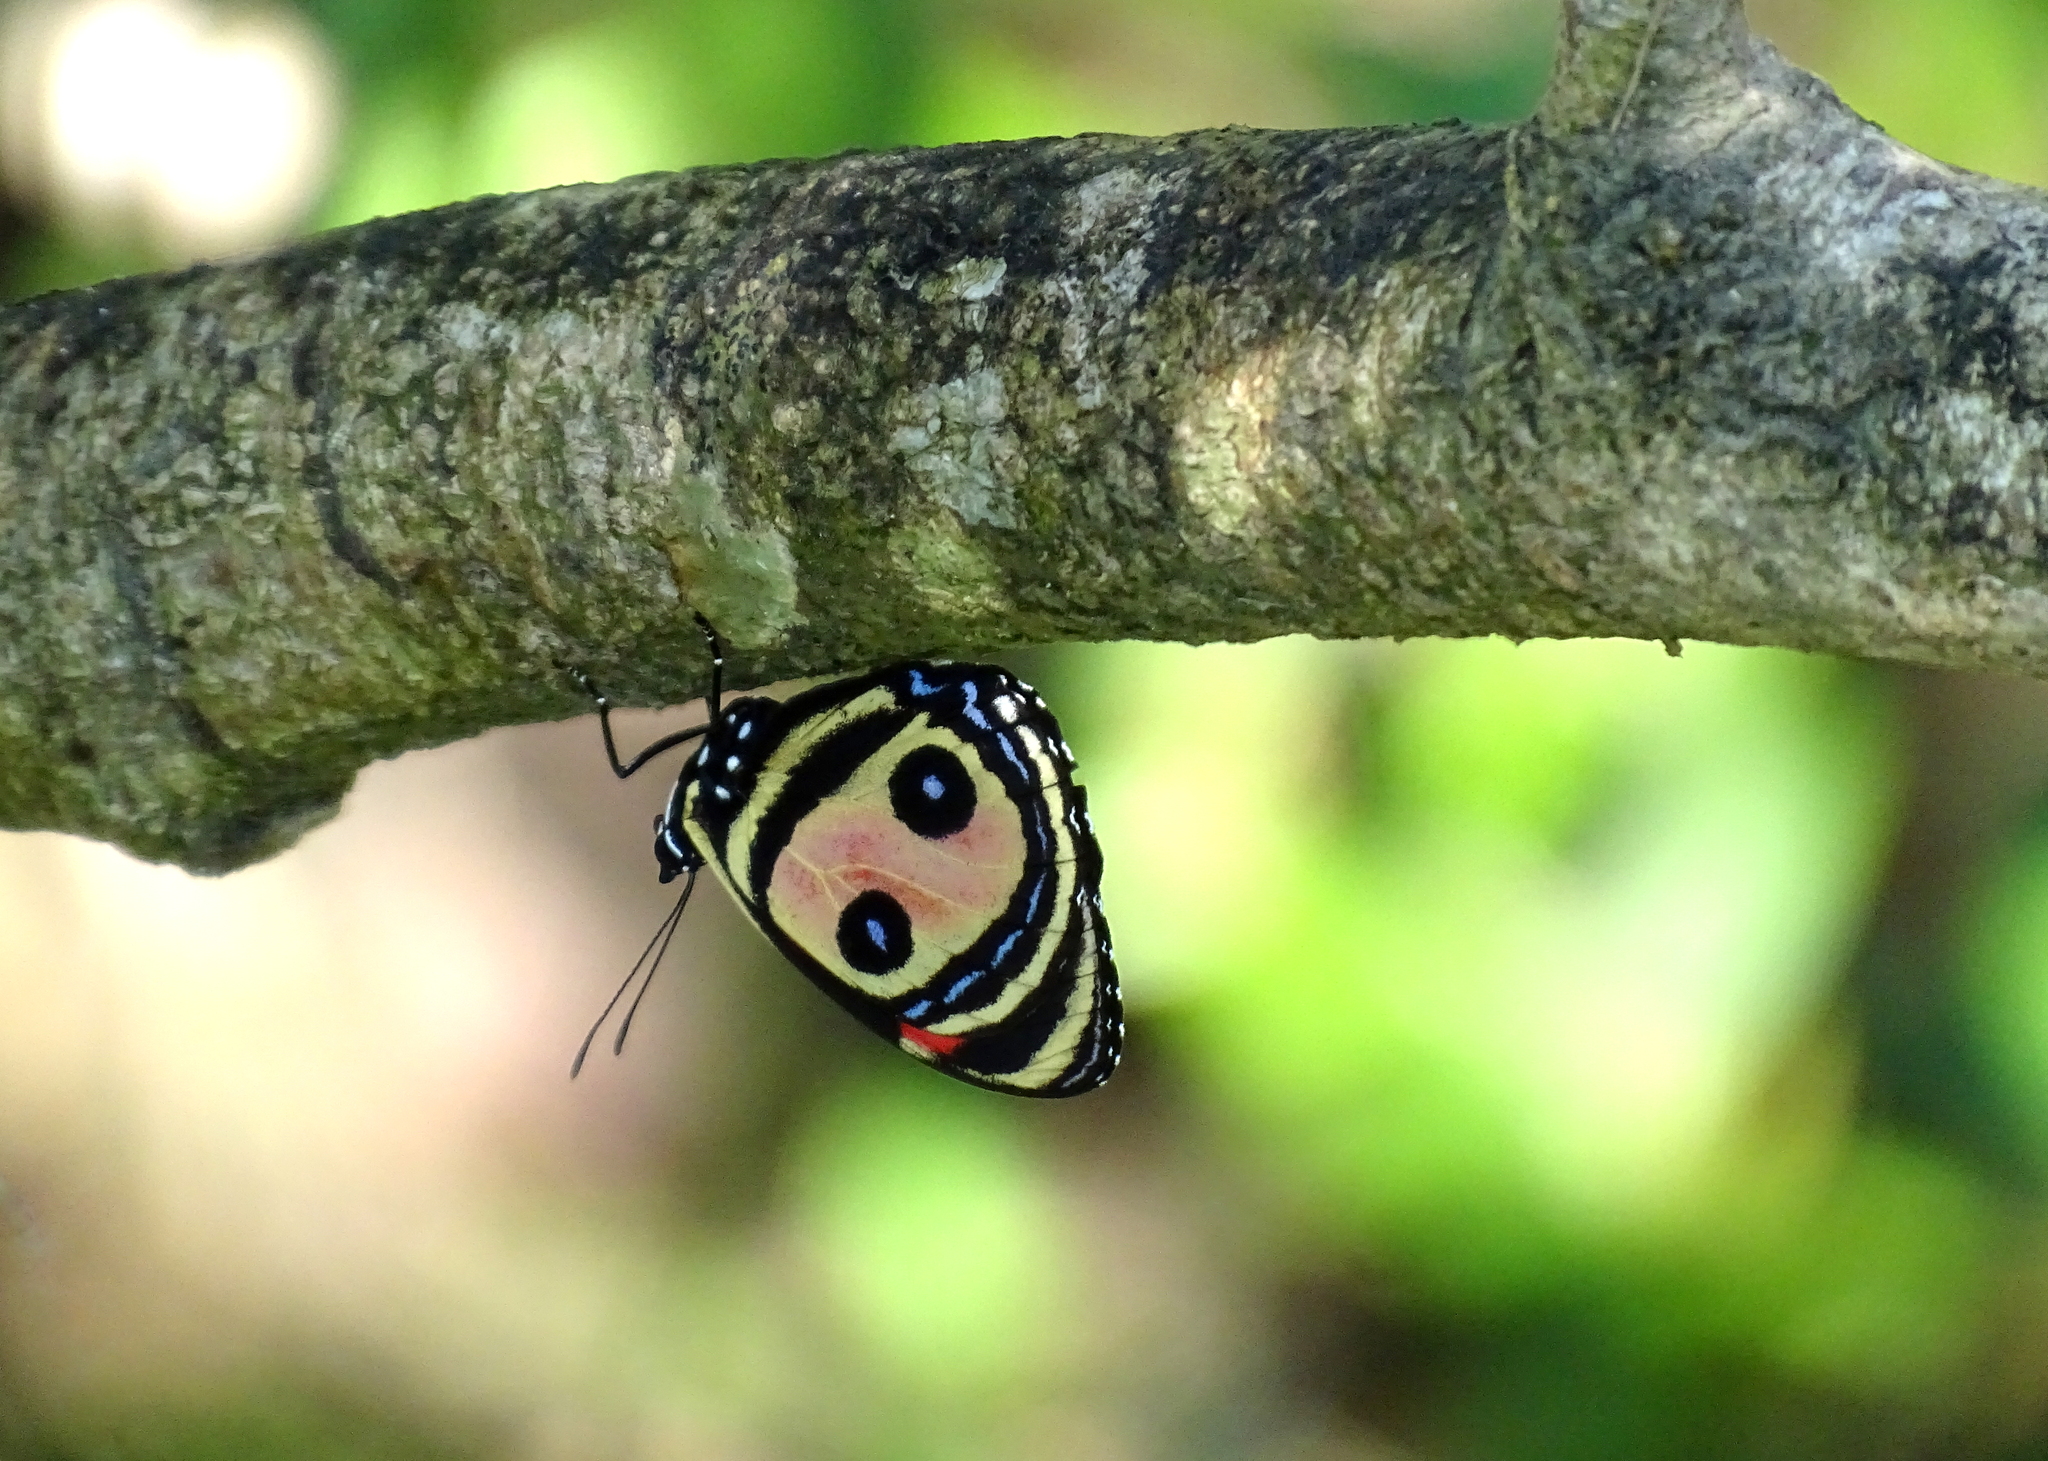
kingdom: Animalia
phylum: Arthropoda
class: Insecta
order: Lepidoptera
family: Nymphalidae
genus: Catagramma
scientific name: Catagramma Callicore pitheas
